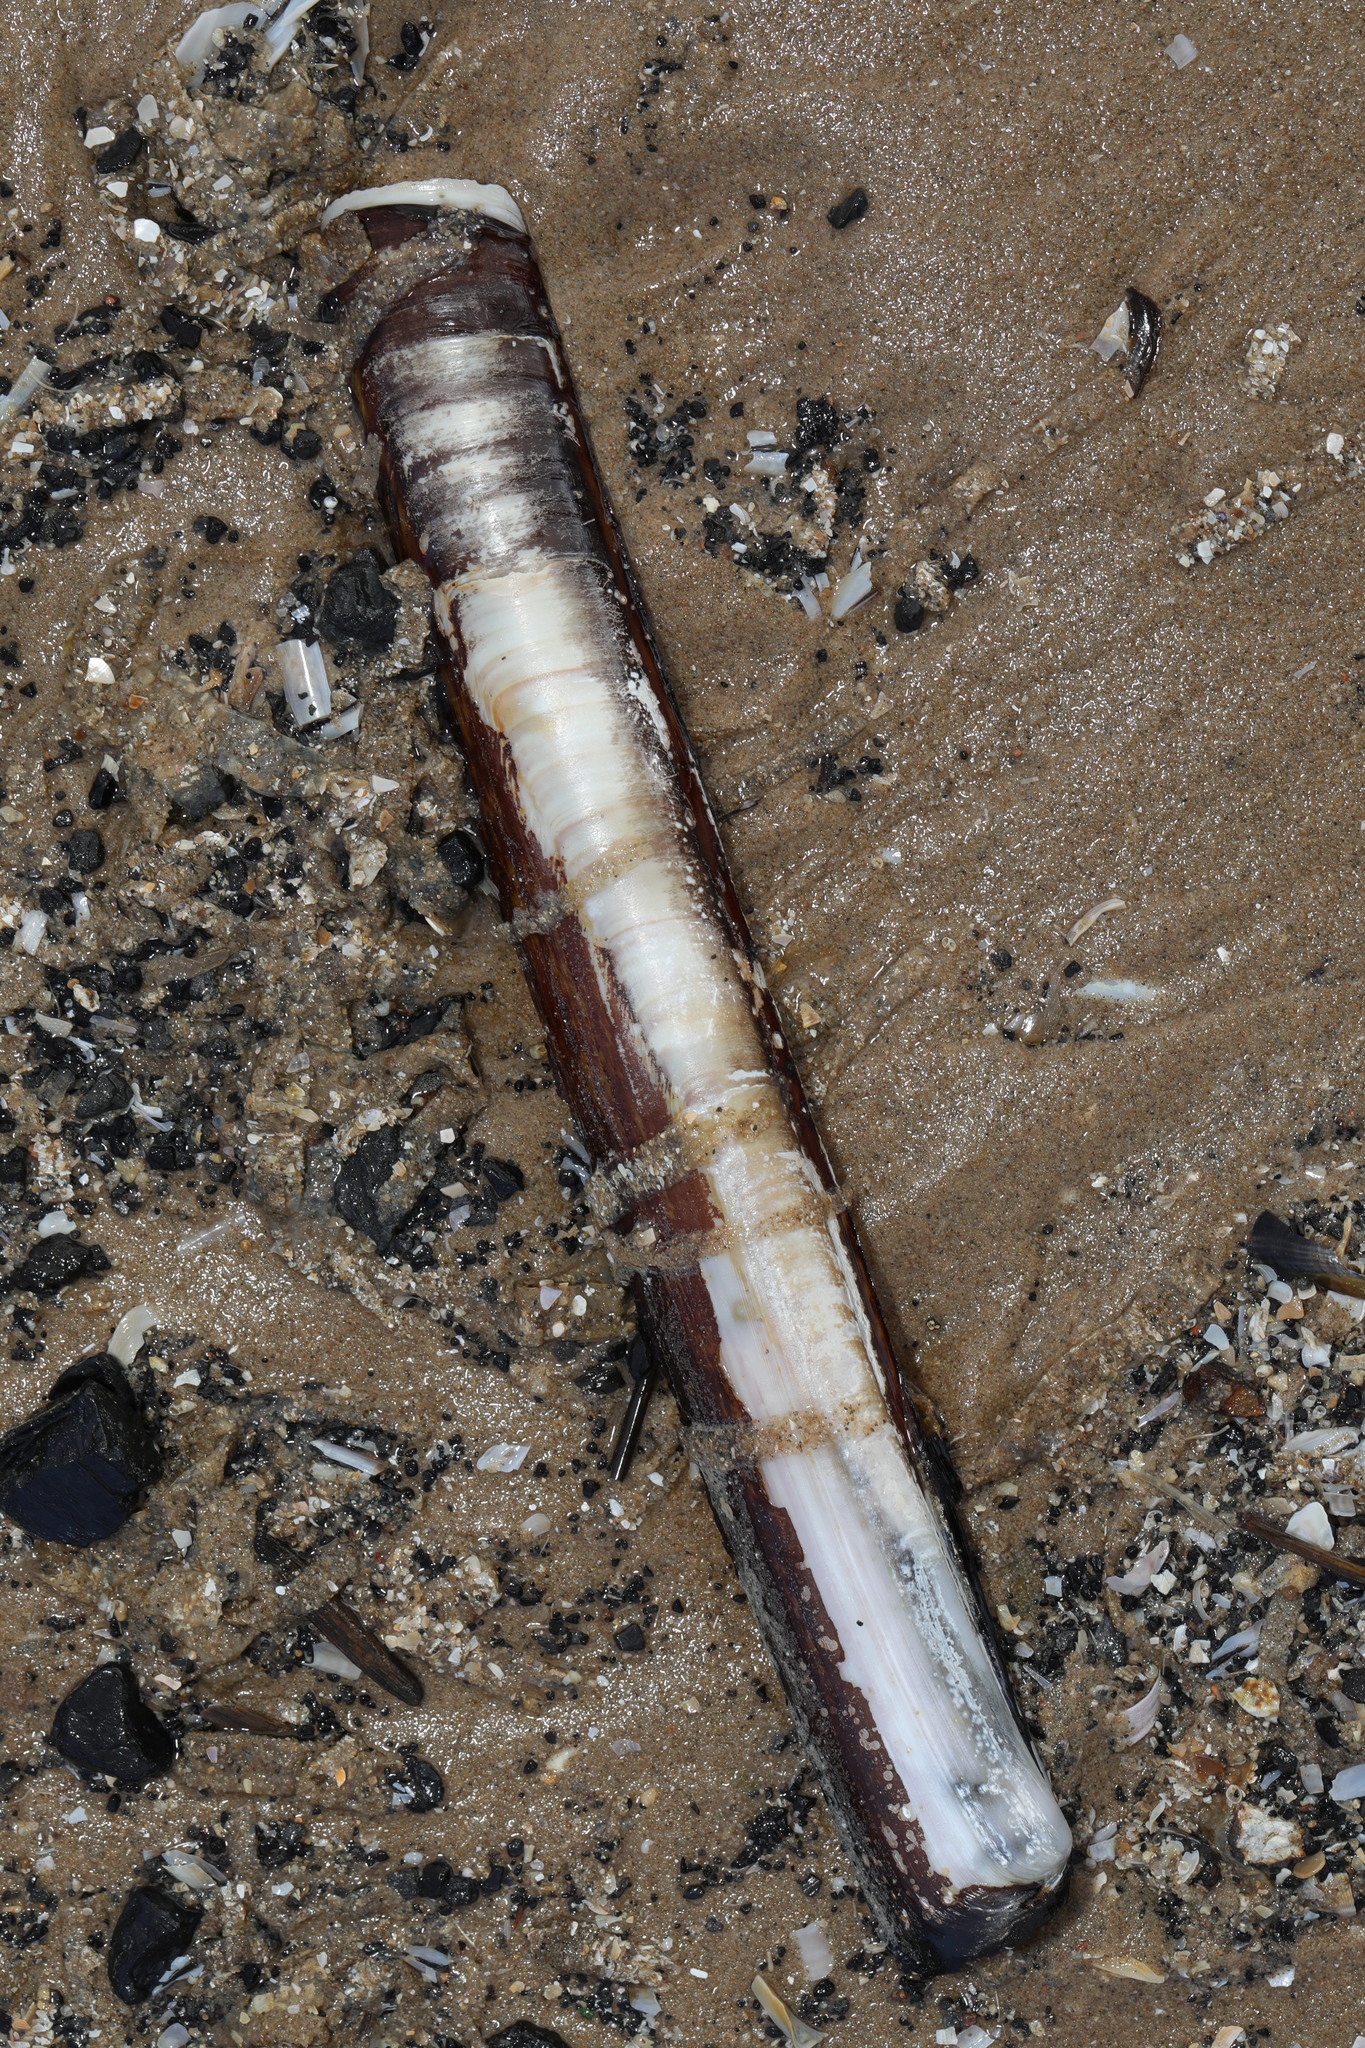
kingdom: Animalia
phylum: Mollusca
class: Bivalvia
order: Adapedonta
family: Pharidae
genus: Ensis
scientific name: Ensis siliqua
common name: Pod razor shell
